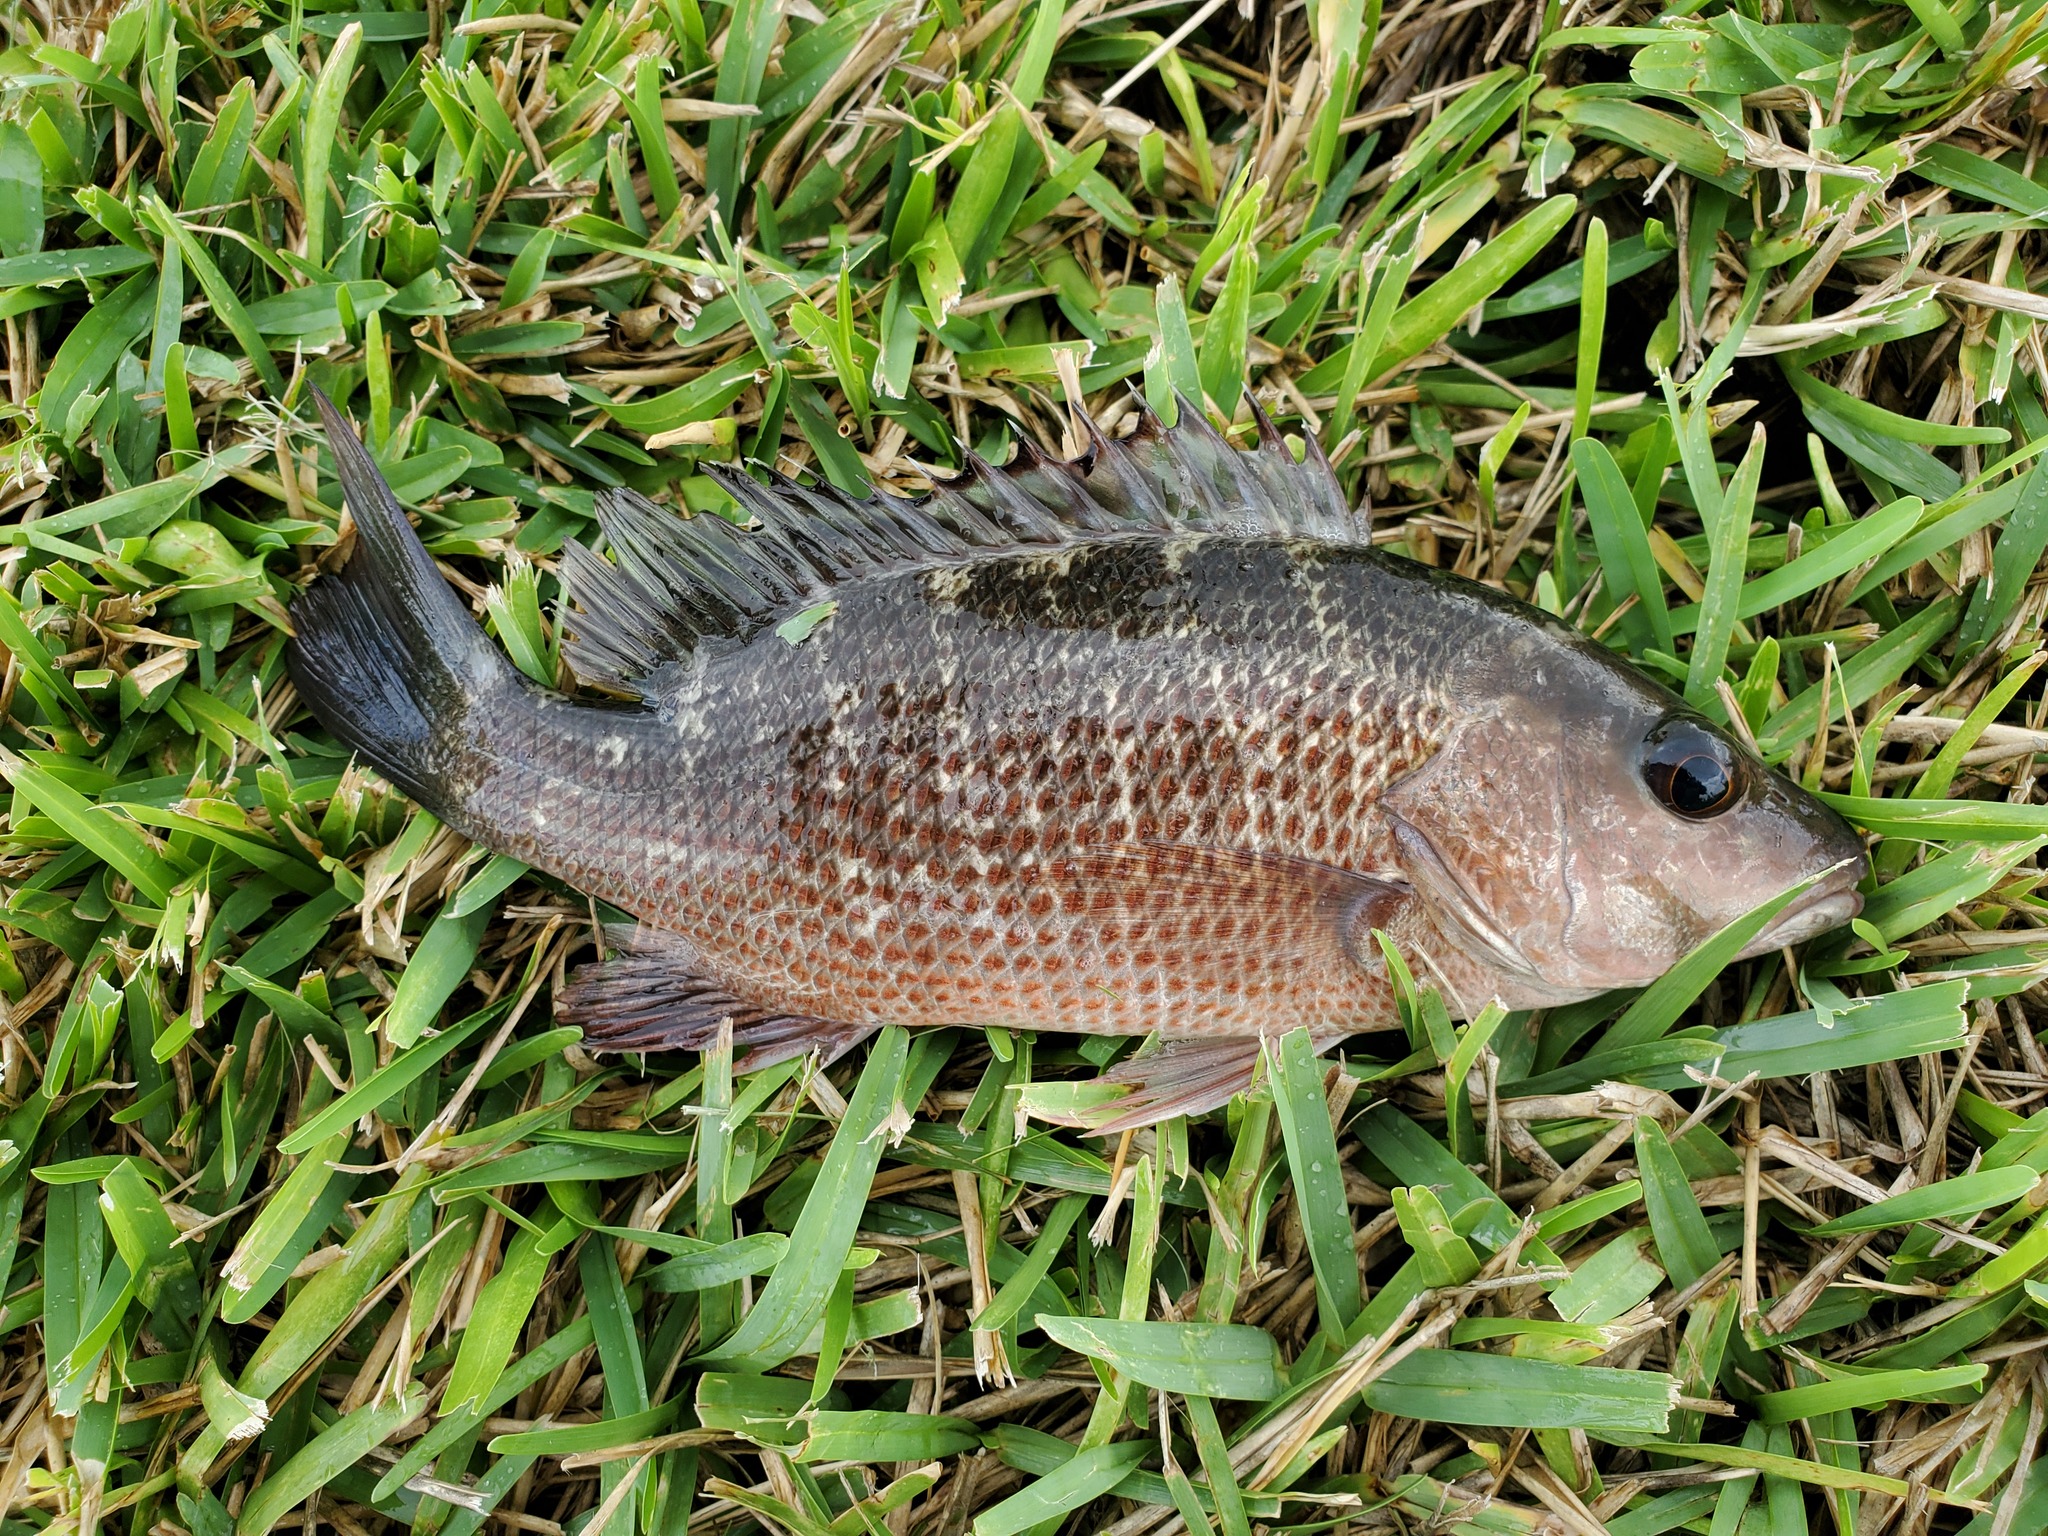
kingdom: Animalia
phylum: Chordata
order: Perciformes
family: Lutjanidae
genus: Lutjanus
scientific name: Lutjanus griseus
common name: Gray snapper
